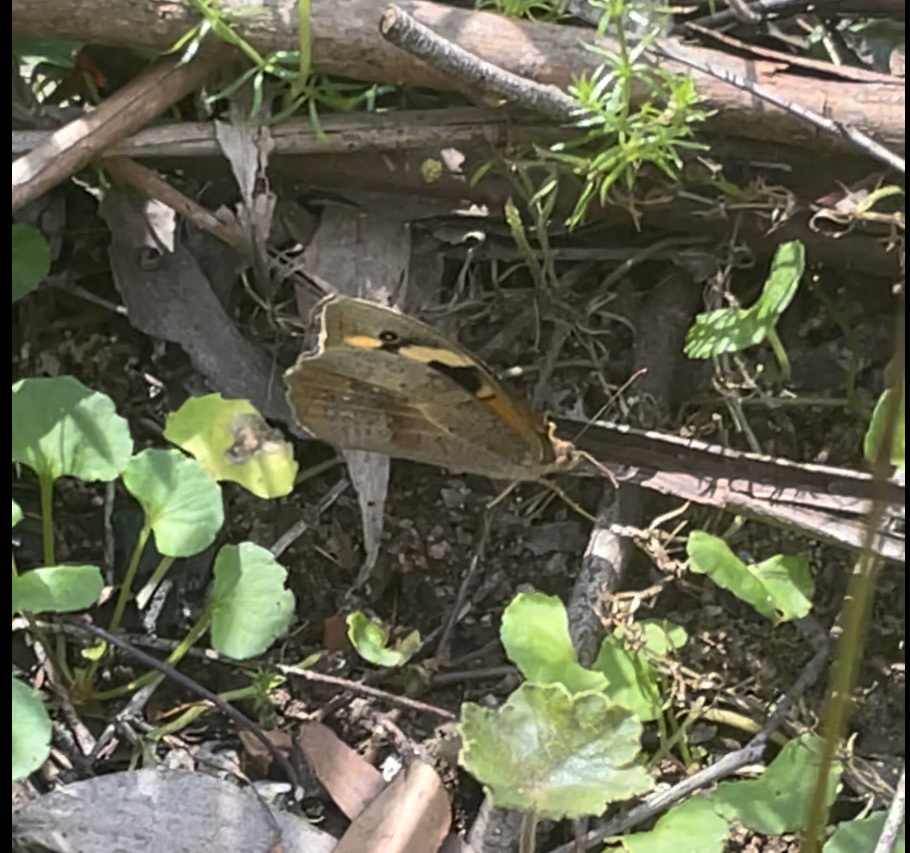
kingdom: Animalia
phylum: Arthropoda
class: Insecta
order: Lepidoptera
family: Nymphalidae
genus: Heteronympha
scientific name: Heteronympha merope
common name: Common brown
